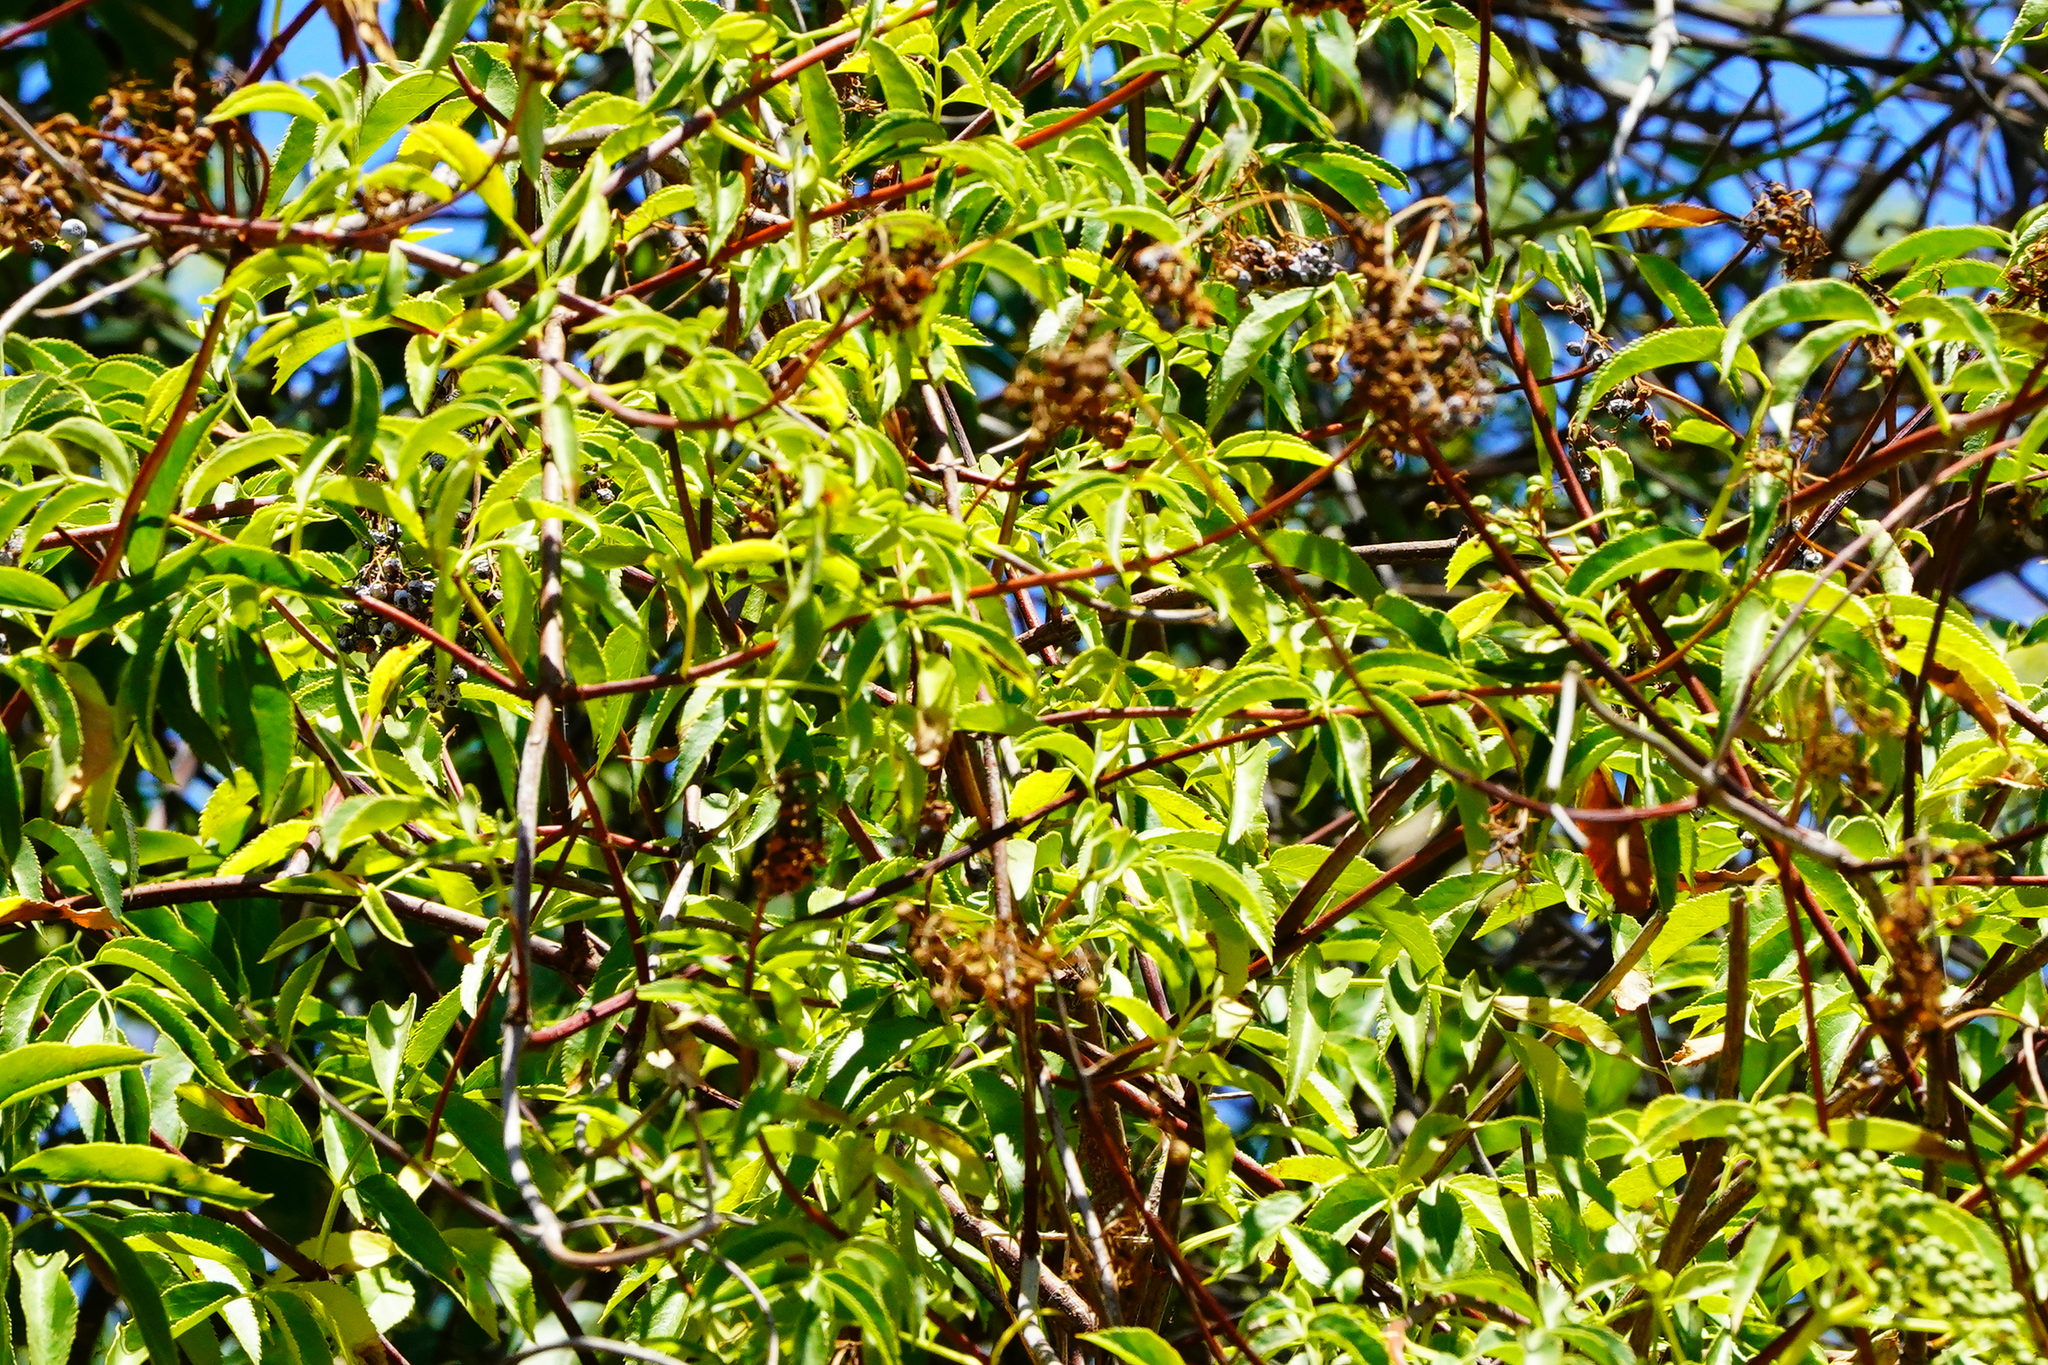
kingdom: Plantae
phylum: Tracheophyta
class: Magnoliopsida
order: Dipsacales
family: Viburnaceae
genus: Sambucus
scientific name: Sambucus cerulea
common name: Blue elder
